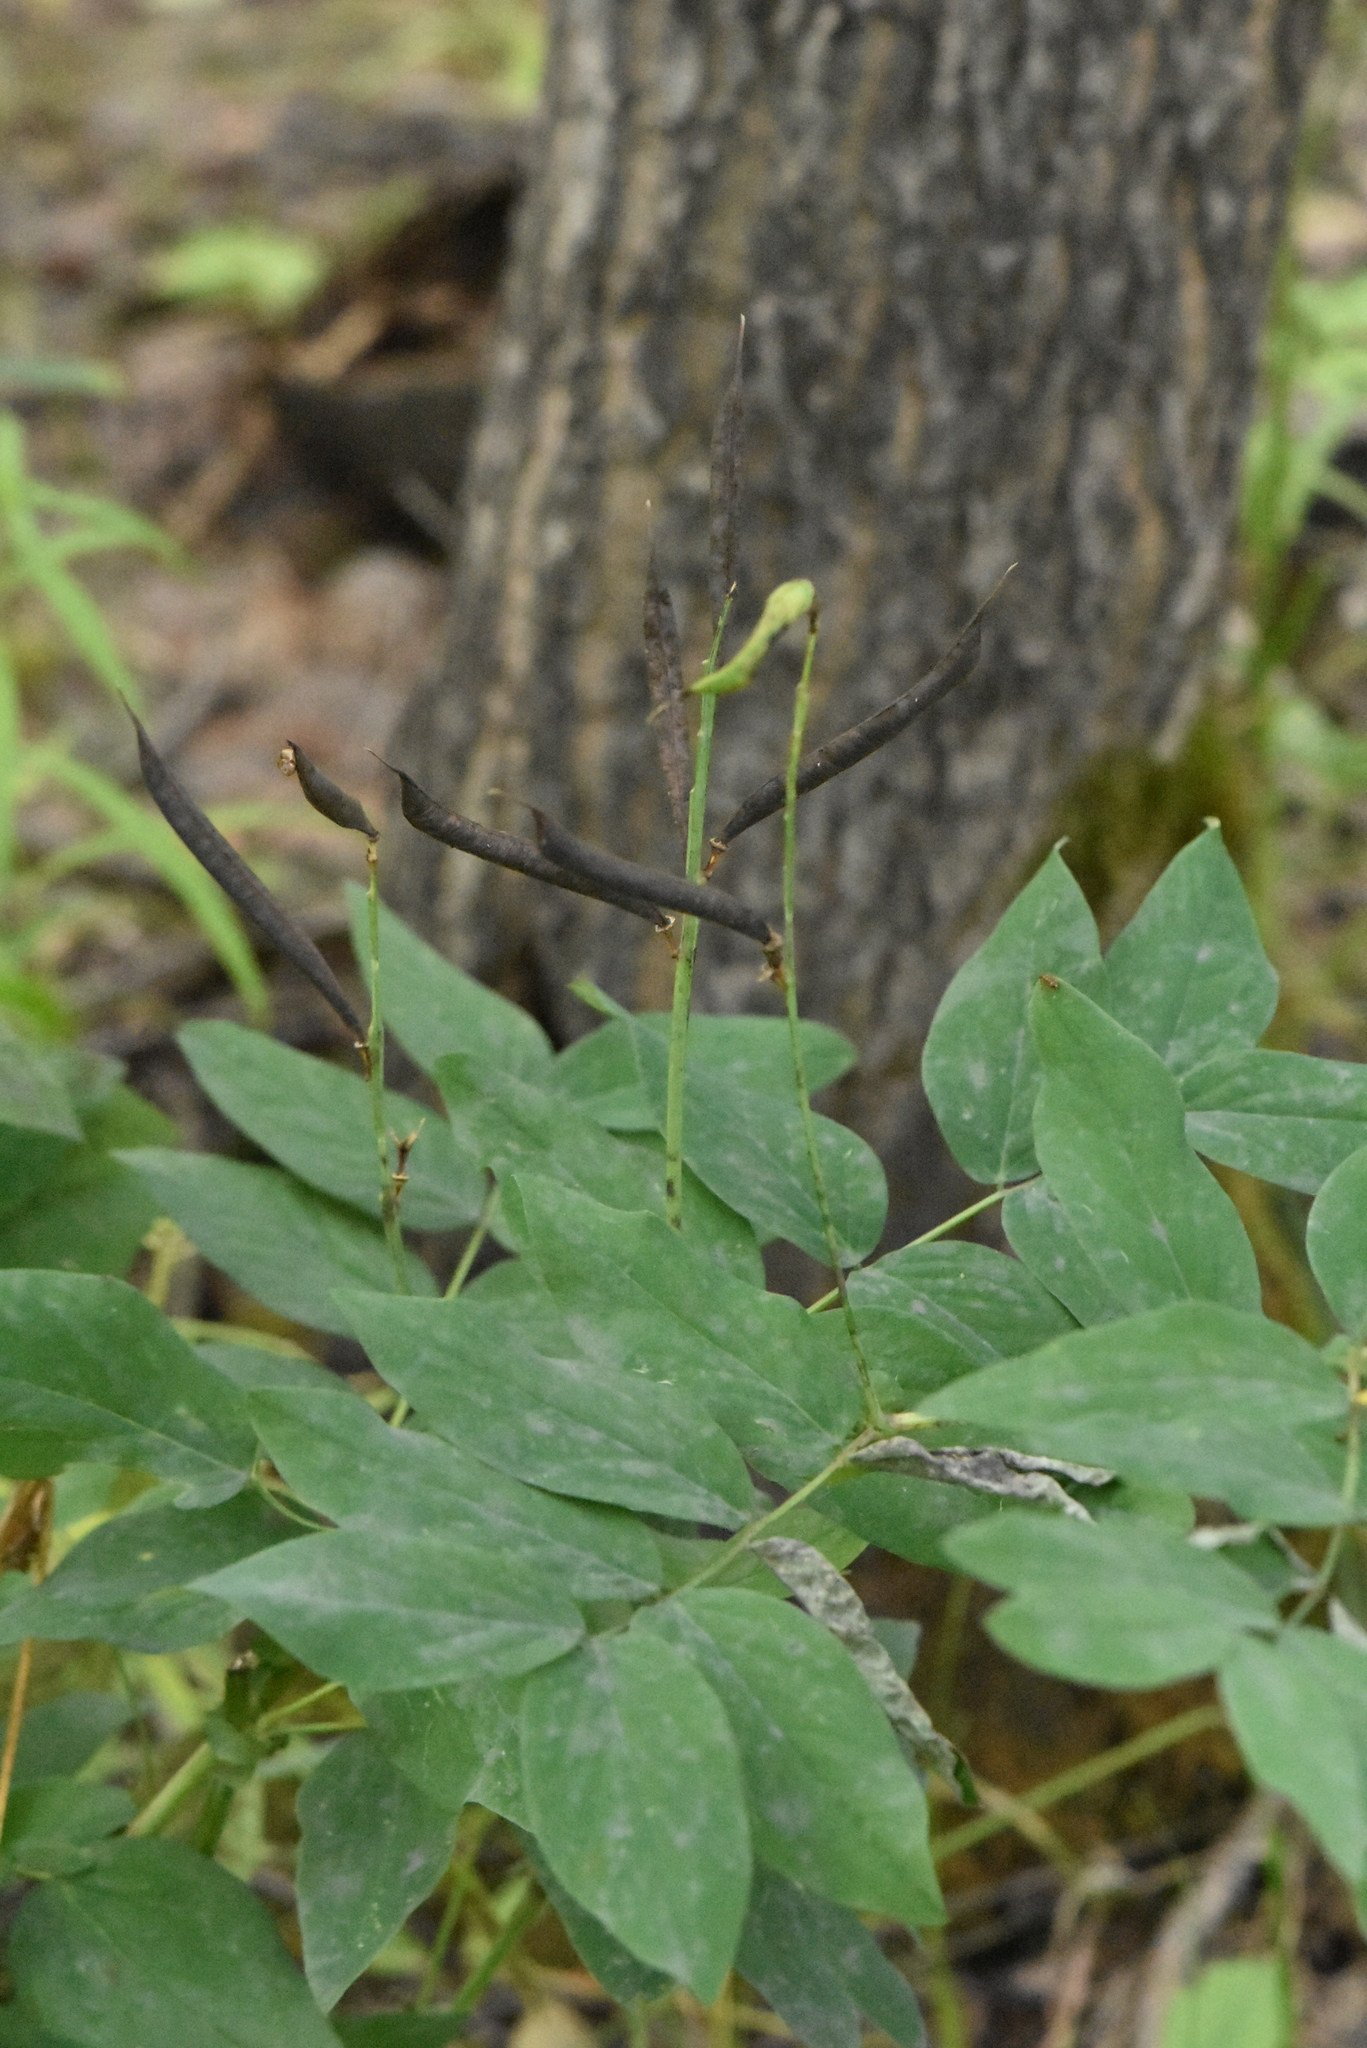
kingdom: Plantae
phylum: Tracheophyta
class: Magnoliopsida
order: Fabales
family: Fabaceae
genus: Lathyrus
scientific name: Lathyrus gmelinii
